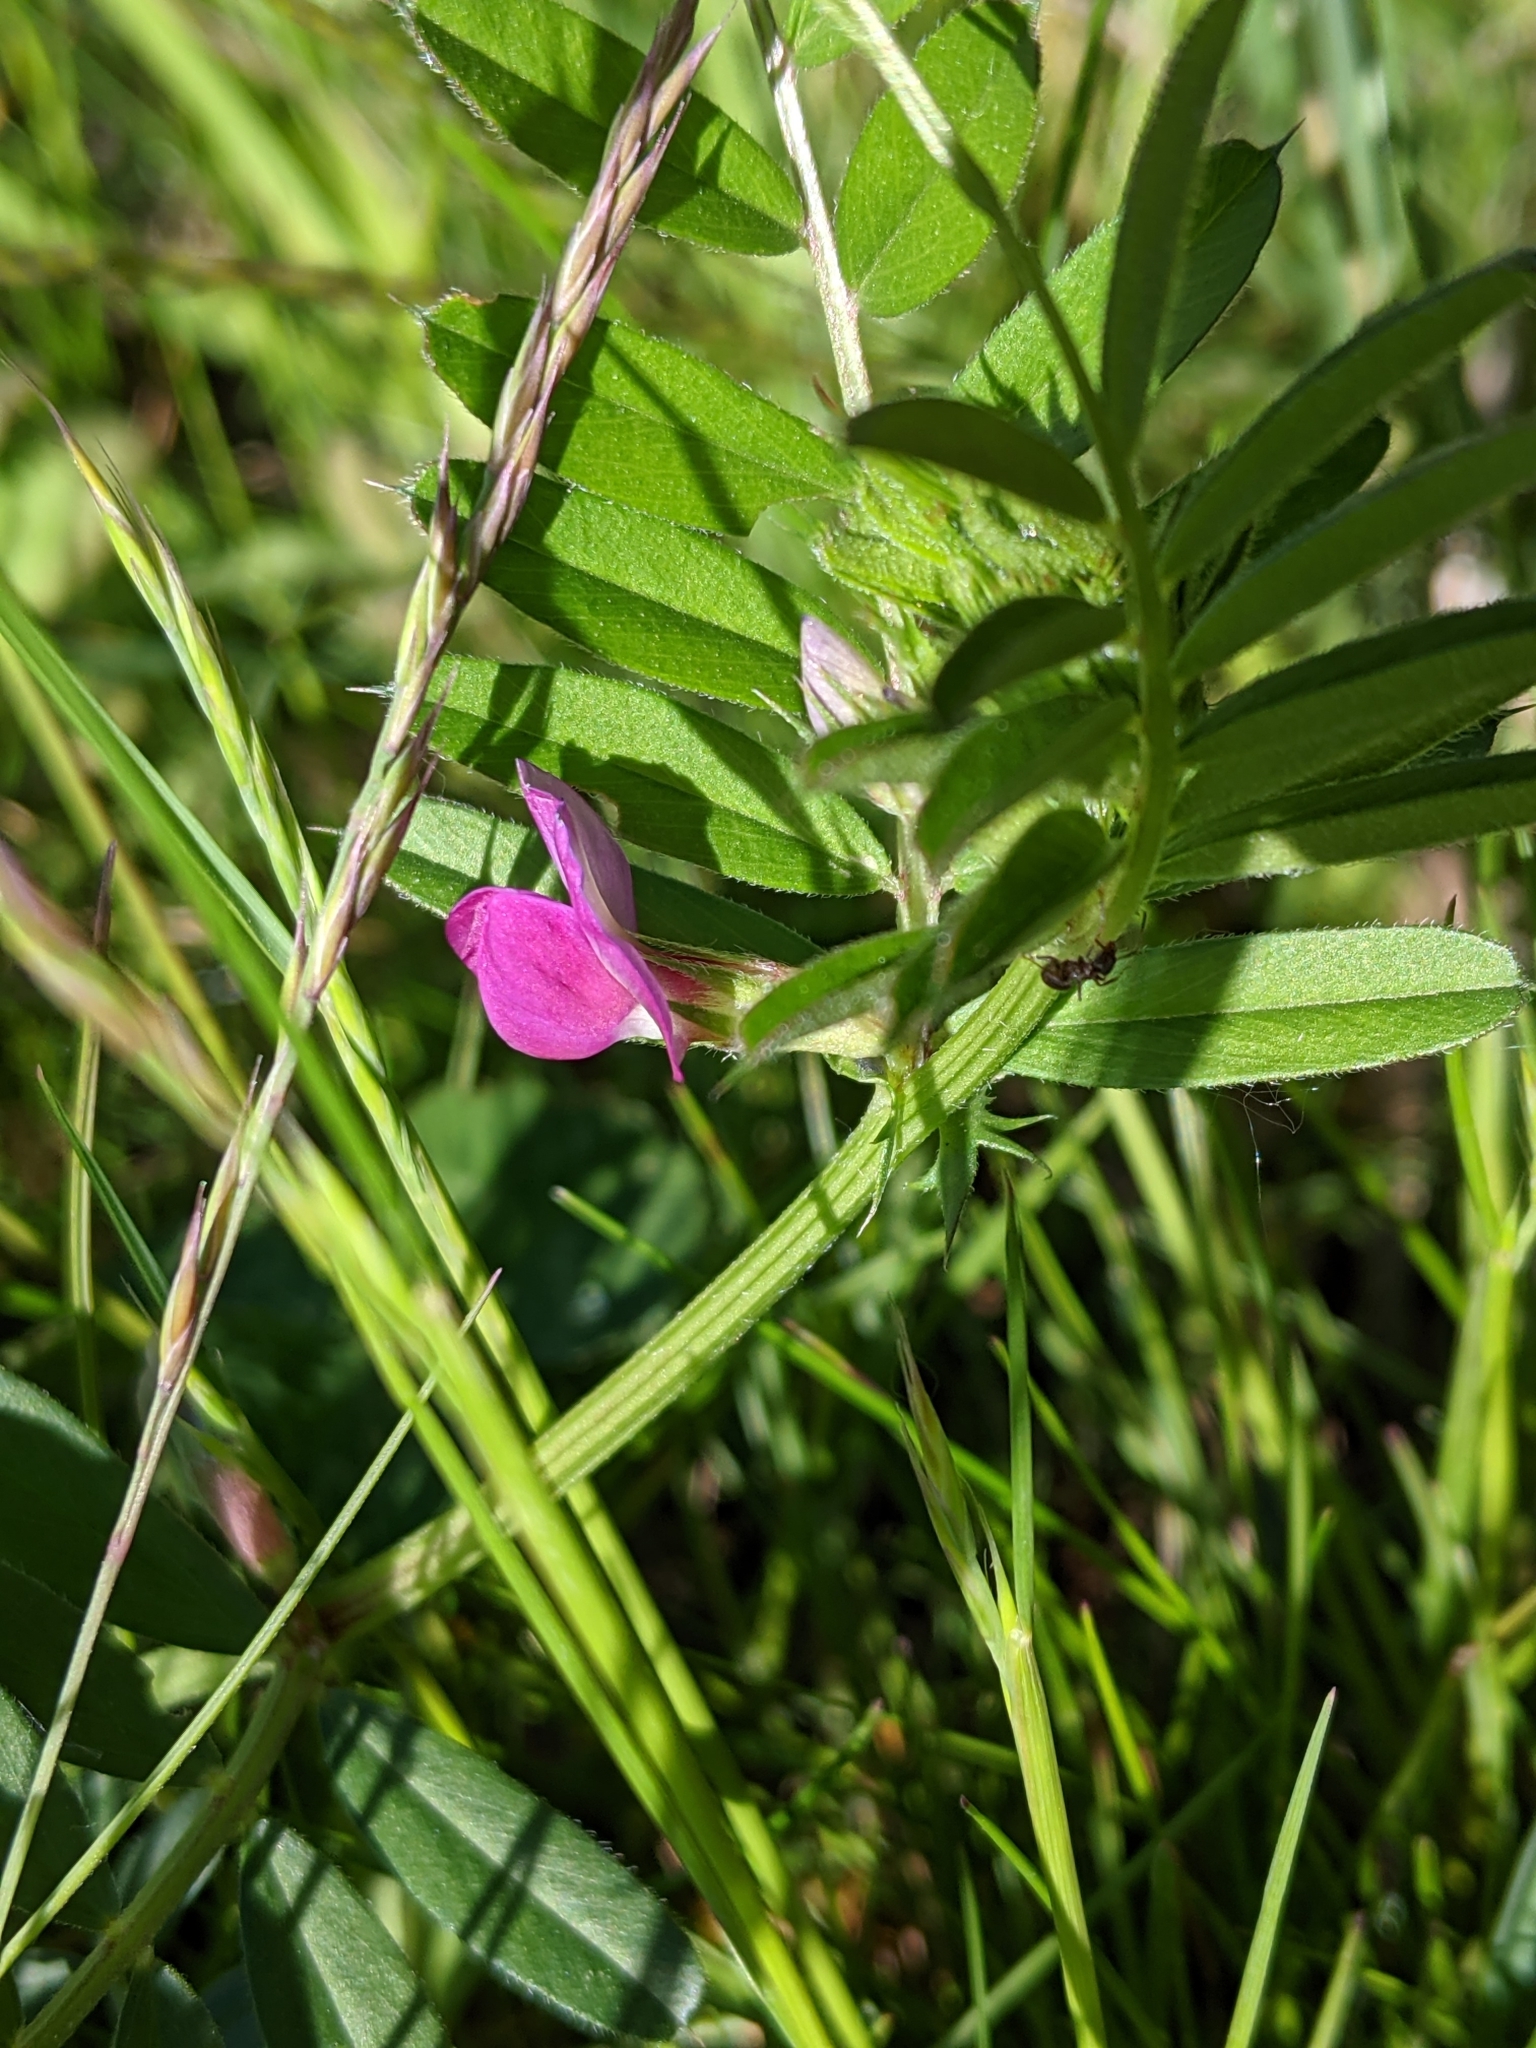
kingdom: Plantae
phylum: Tracheophyta
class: Magnoliopsida
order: Fabales
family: Fabaceae
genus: Vicia
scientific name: Vicia sativa
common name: Garden vetch
